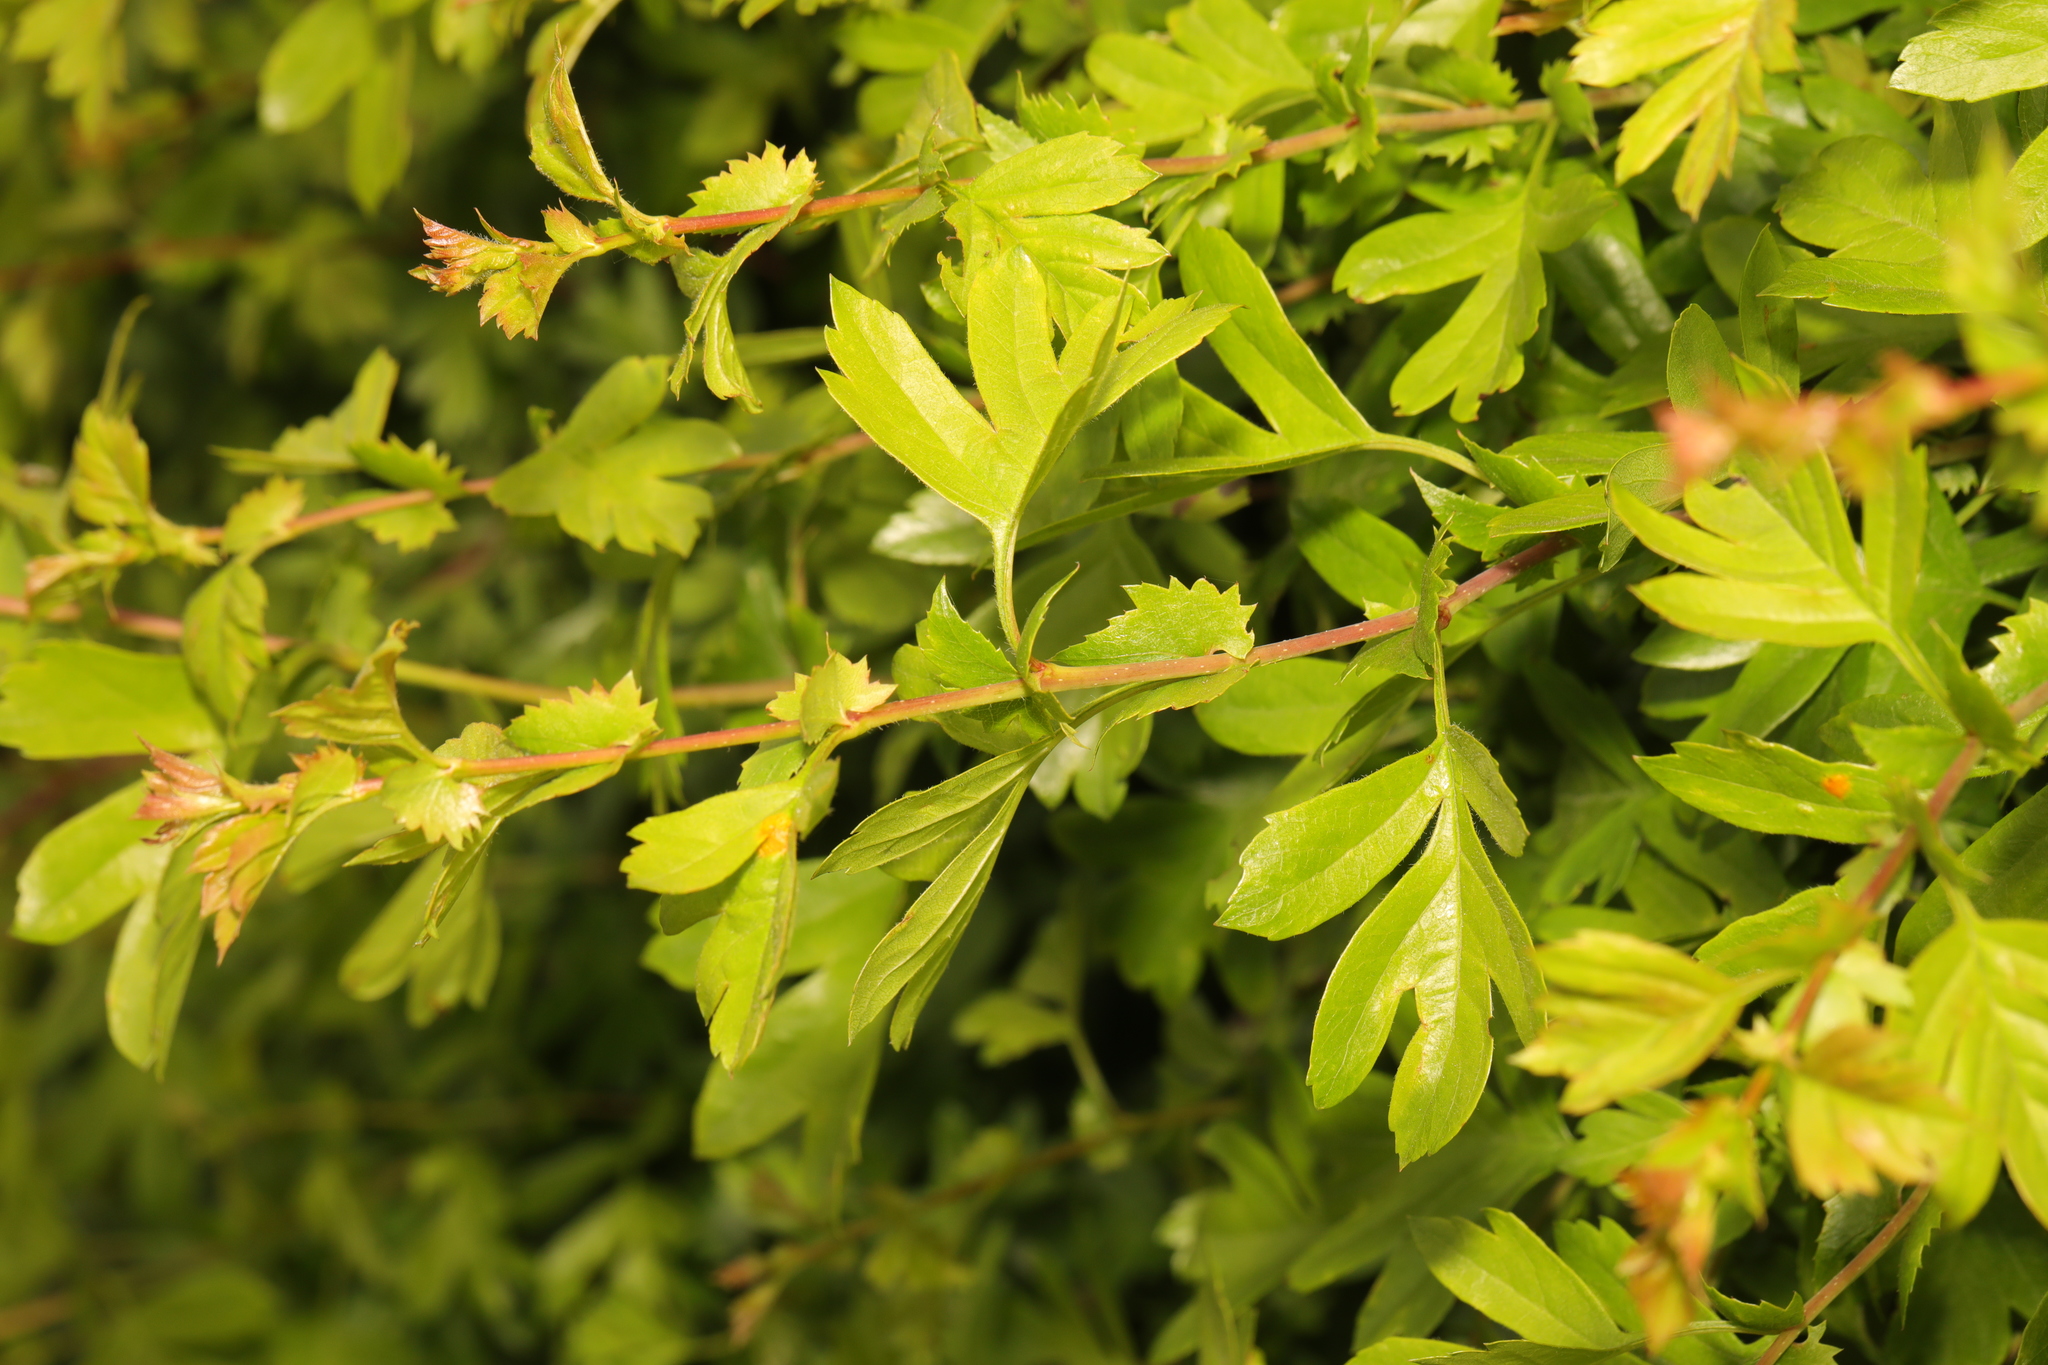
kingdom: Plantae
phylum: Tracheophyta
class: Magnoliopsida
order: Rosales
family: Rosaceae
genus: Crataegus
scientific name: Crataegus monogyna
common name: Hawthorn
